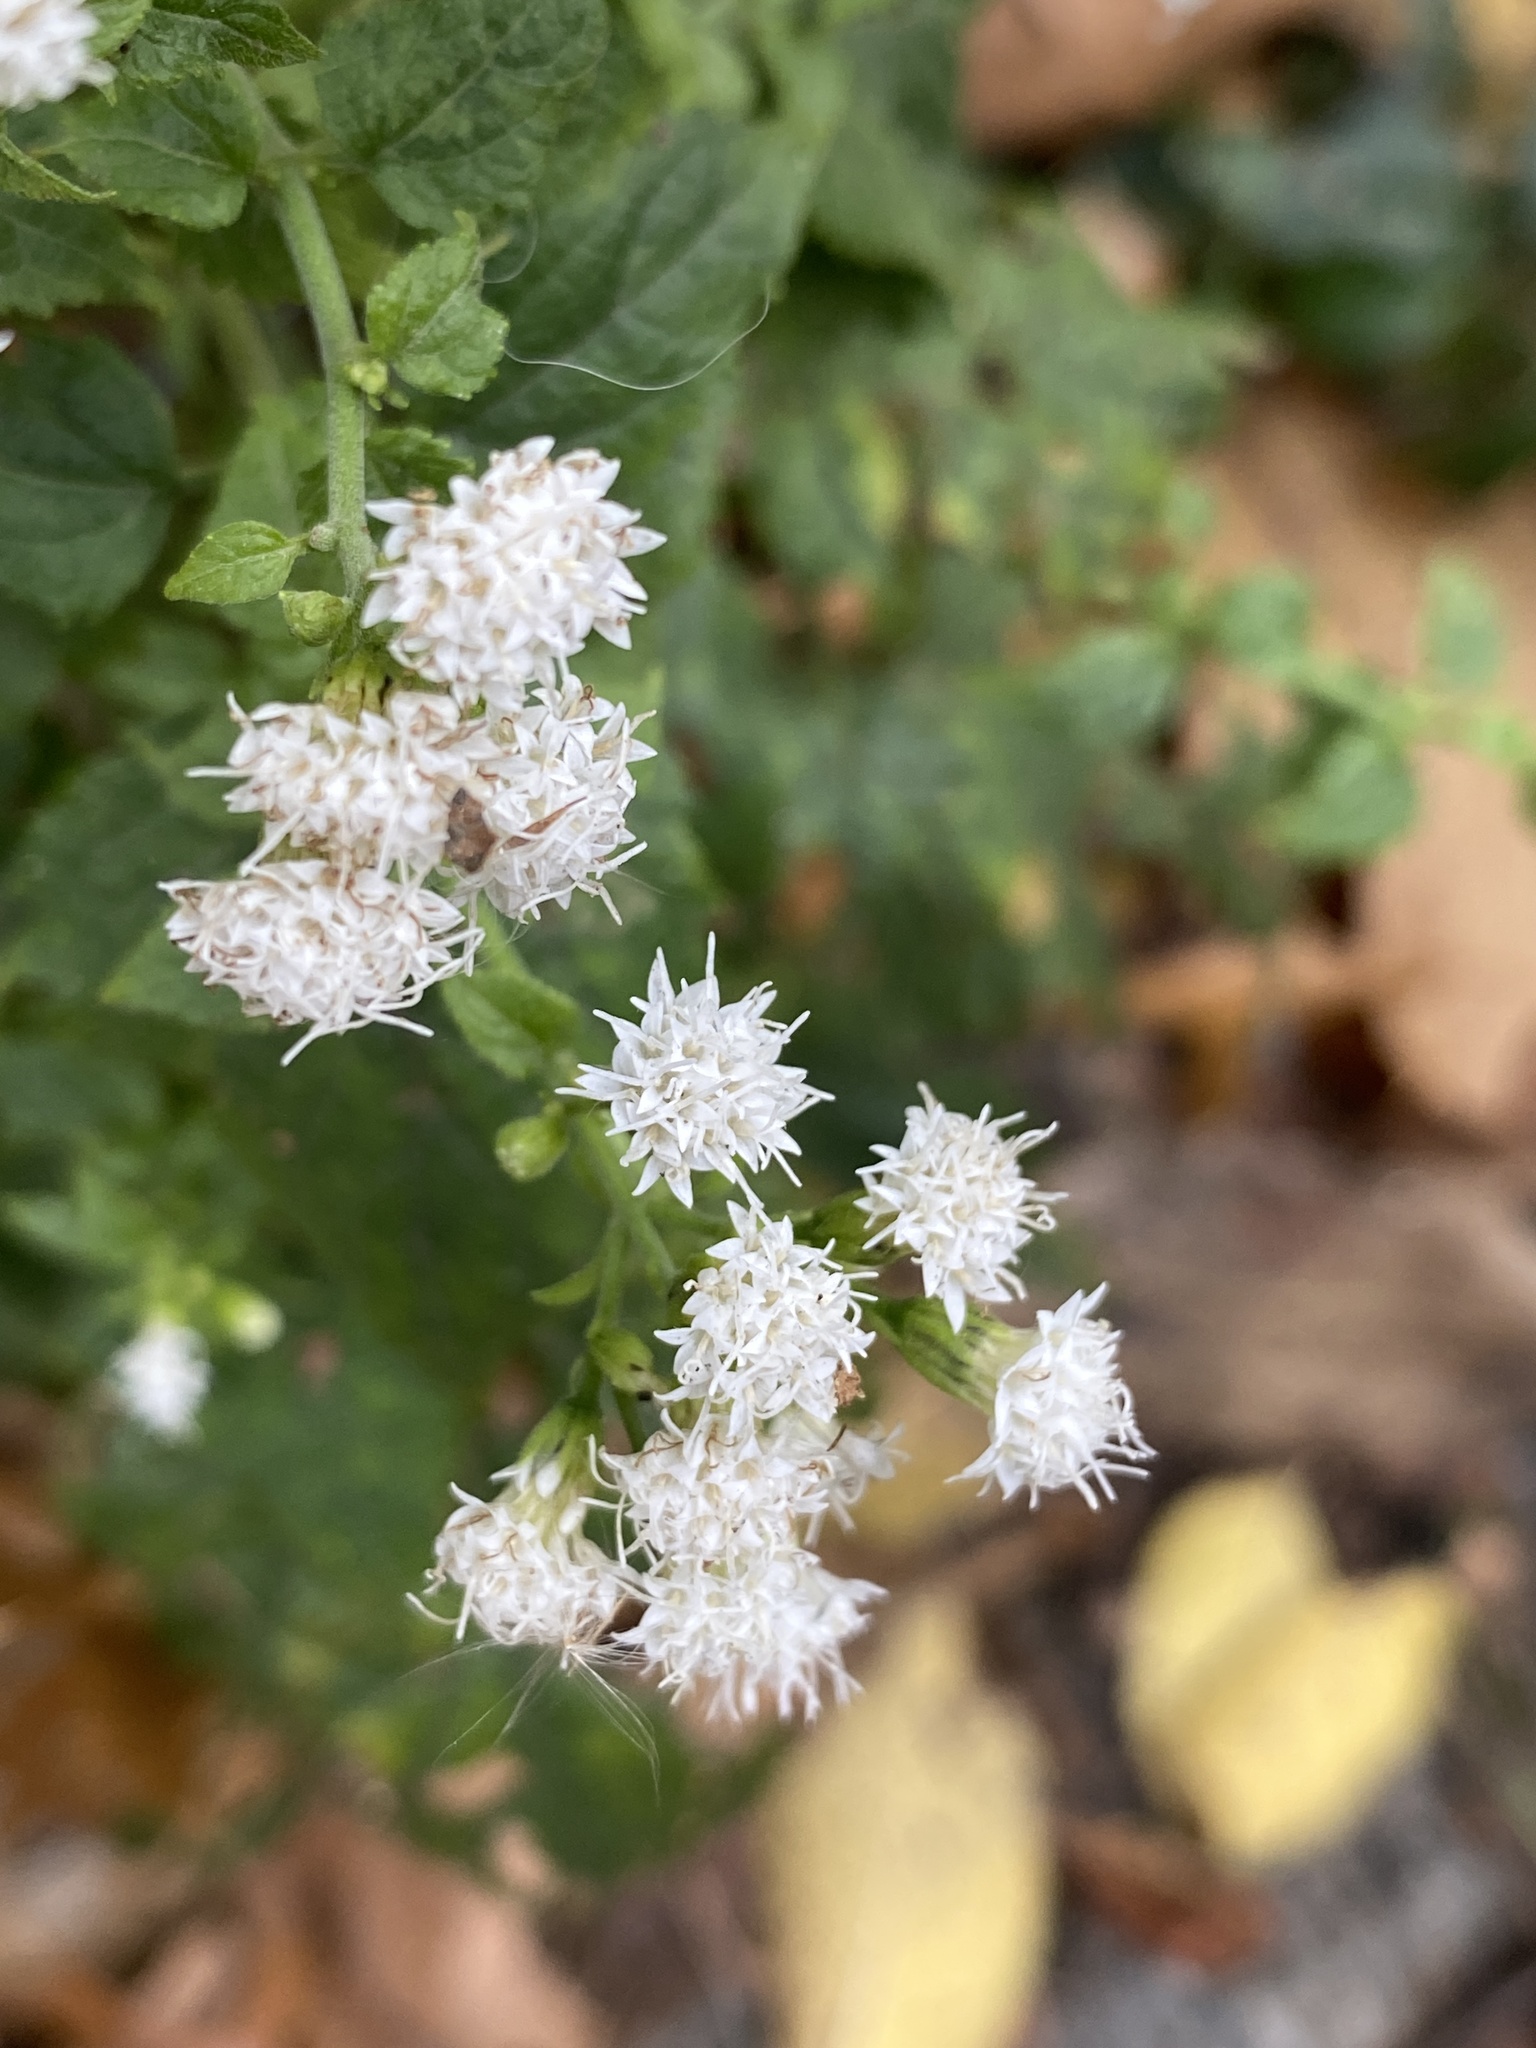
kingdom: Plantae
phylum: Tracheophyta
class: Magnoliopsida
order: Asterales
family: Asteraceae
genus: Ageratina
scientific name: Ageratina altissima
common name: White snakeroot
